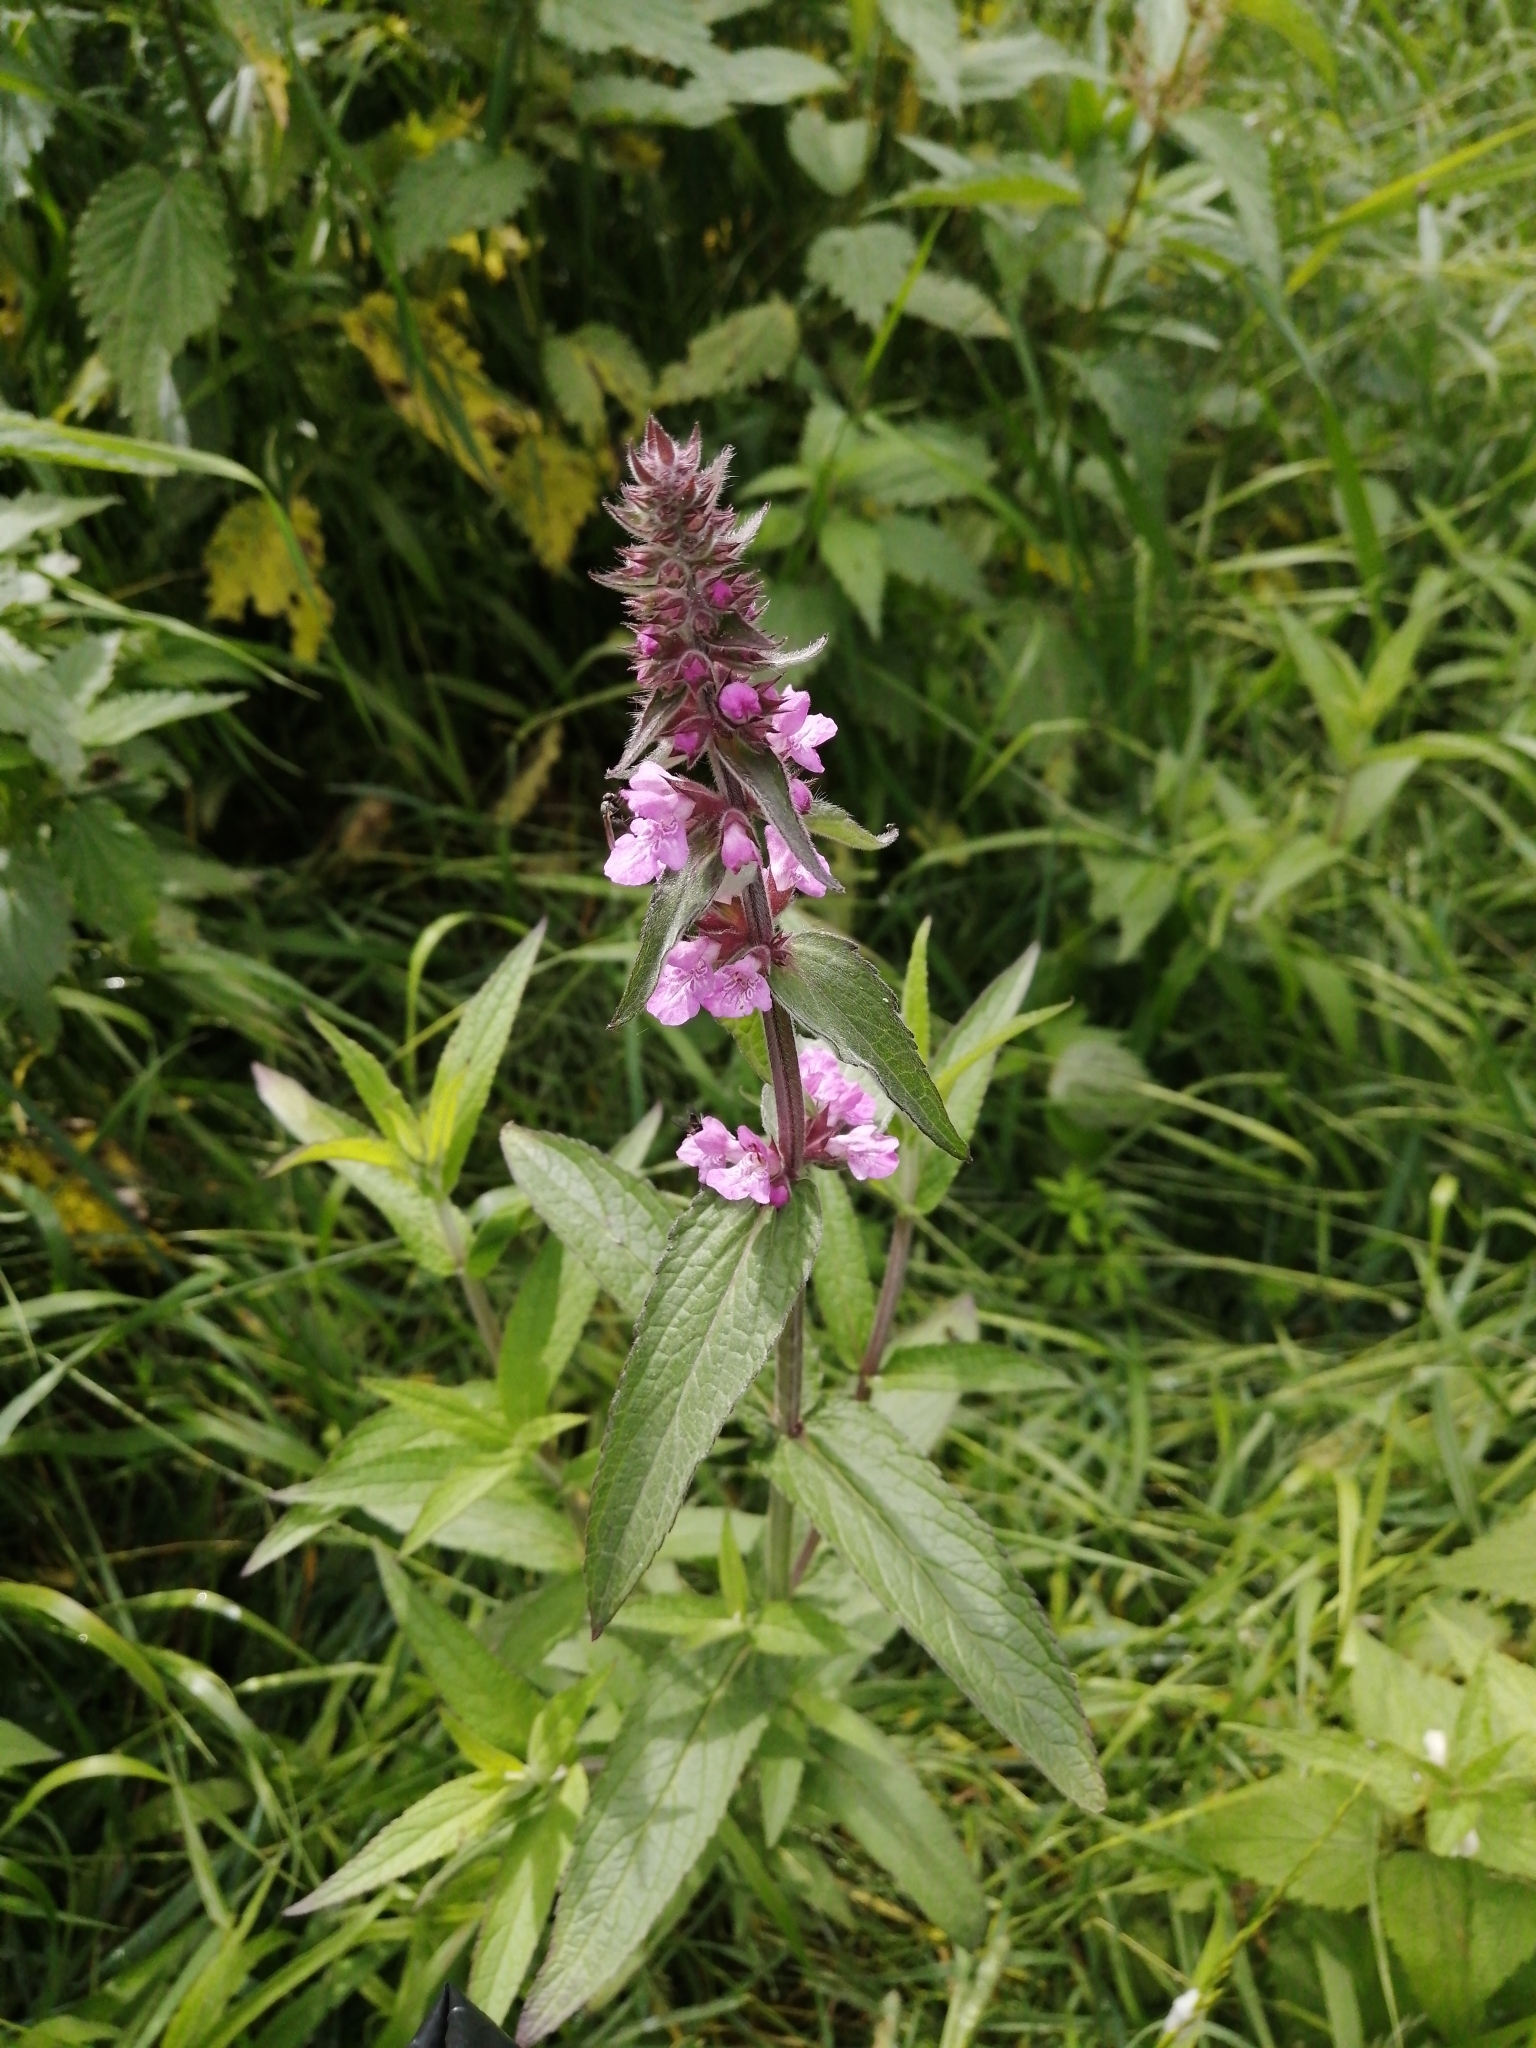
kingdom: Plantae
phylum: Tracheophyta
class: Magnoliopsida
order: Lamiales
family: Lamiaceae
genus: Stachys
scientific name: Stachys palustris
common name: Marsh woundwort
